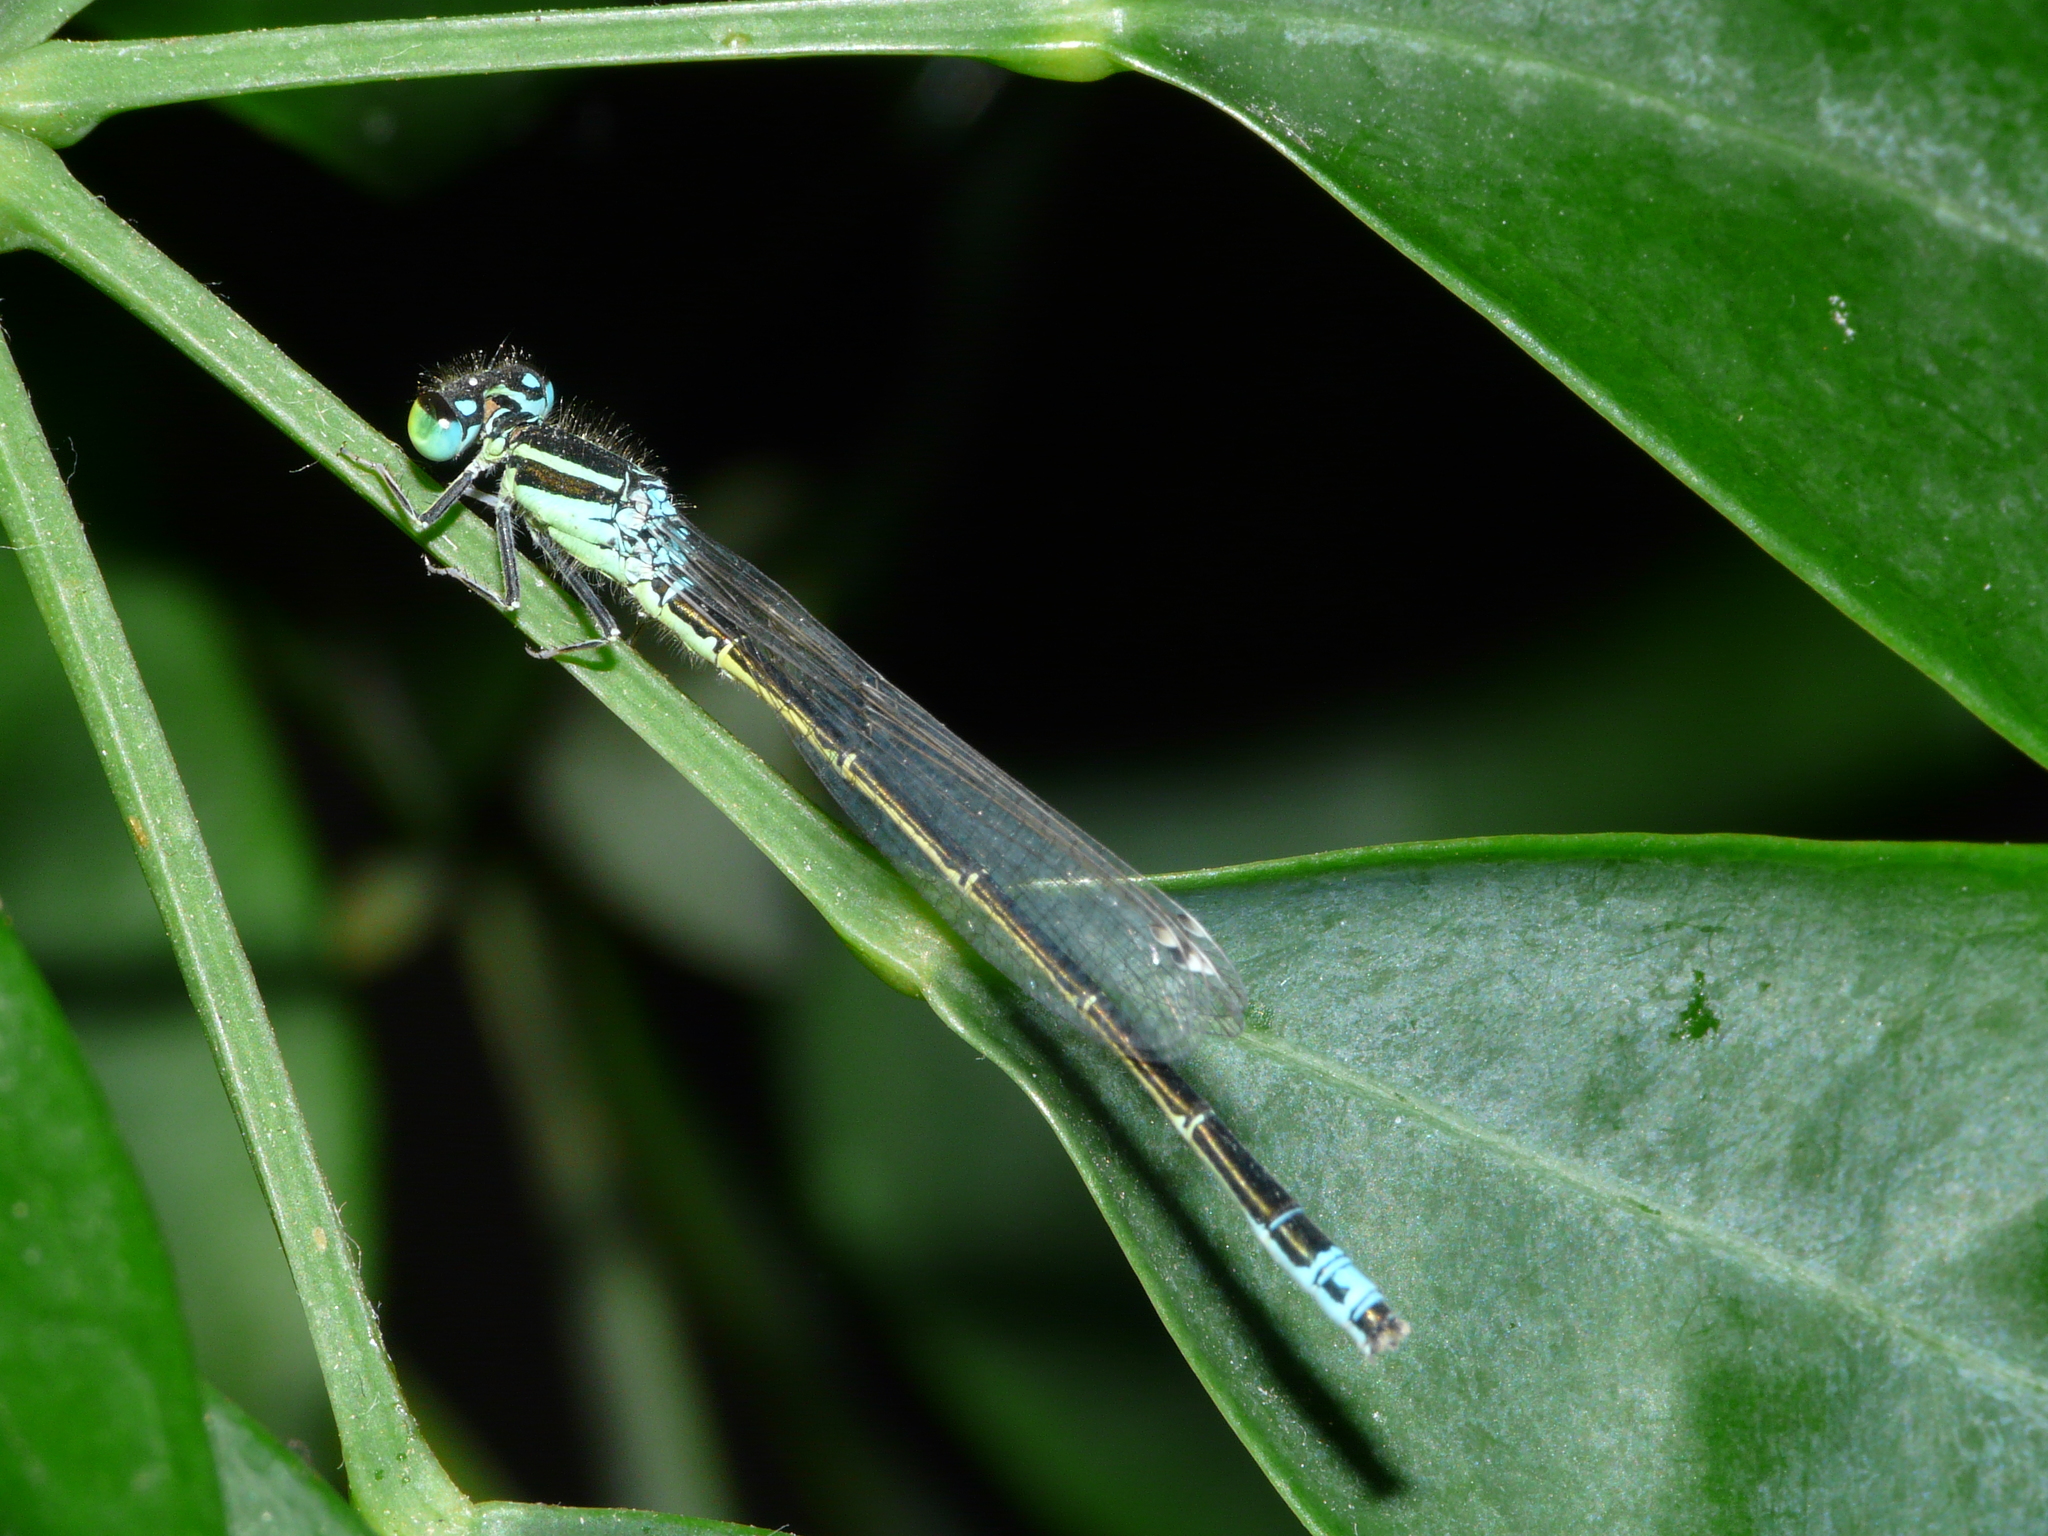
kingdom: Animalia
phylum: Arthropoda
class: Insecta
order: Odonata
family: Coenagrionidae
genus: Ischnura
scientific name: Ischnura pumilio
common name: Scarce blue-tailed damselfly
